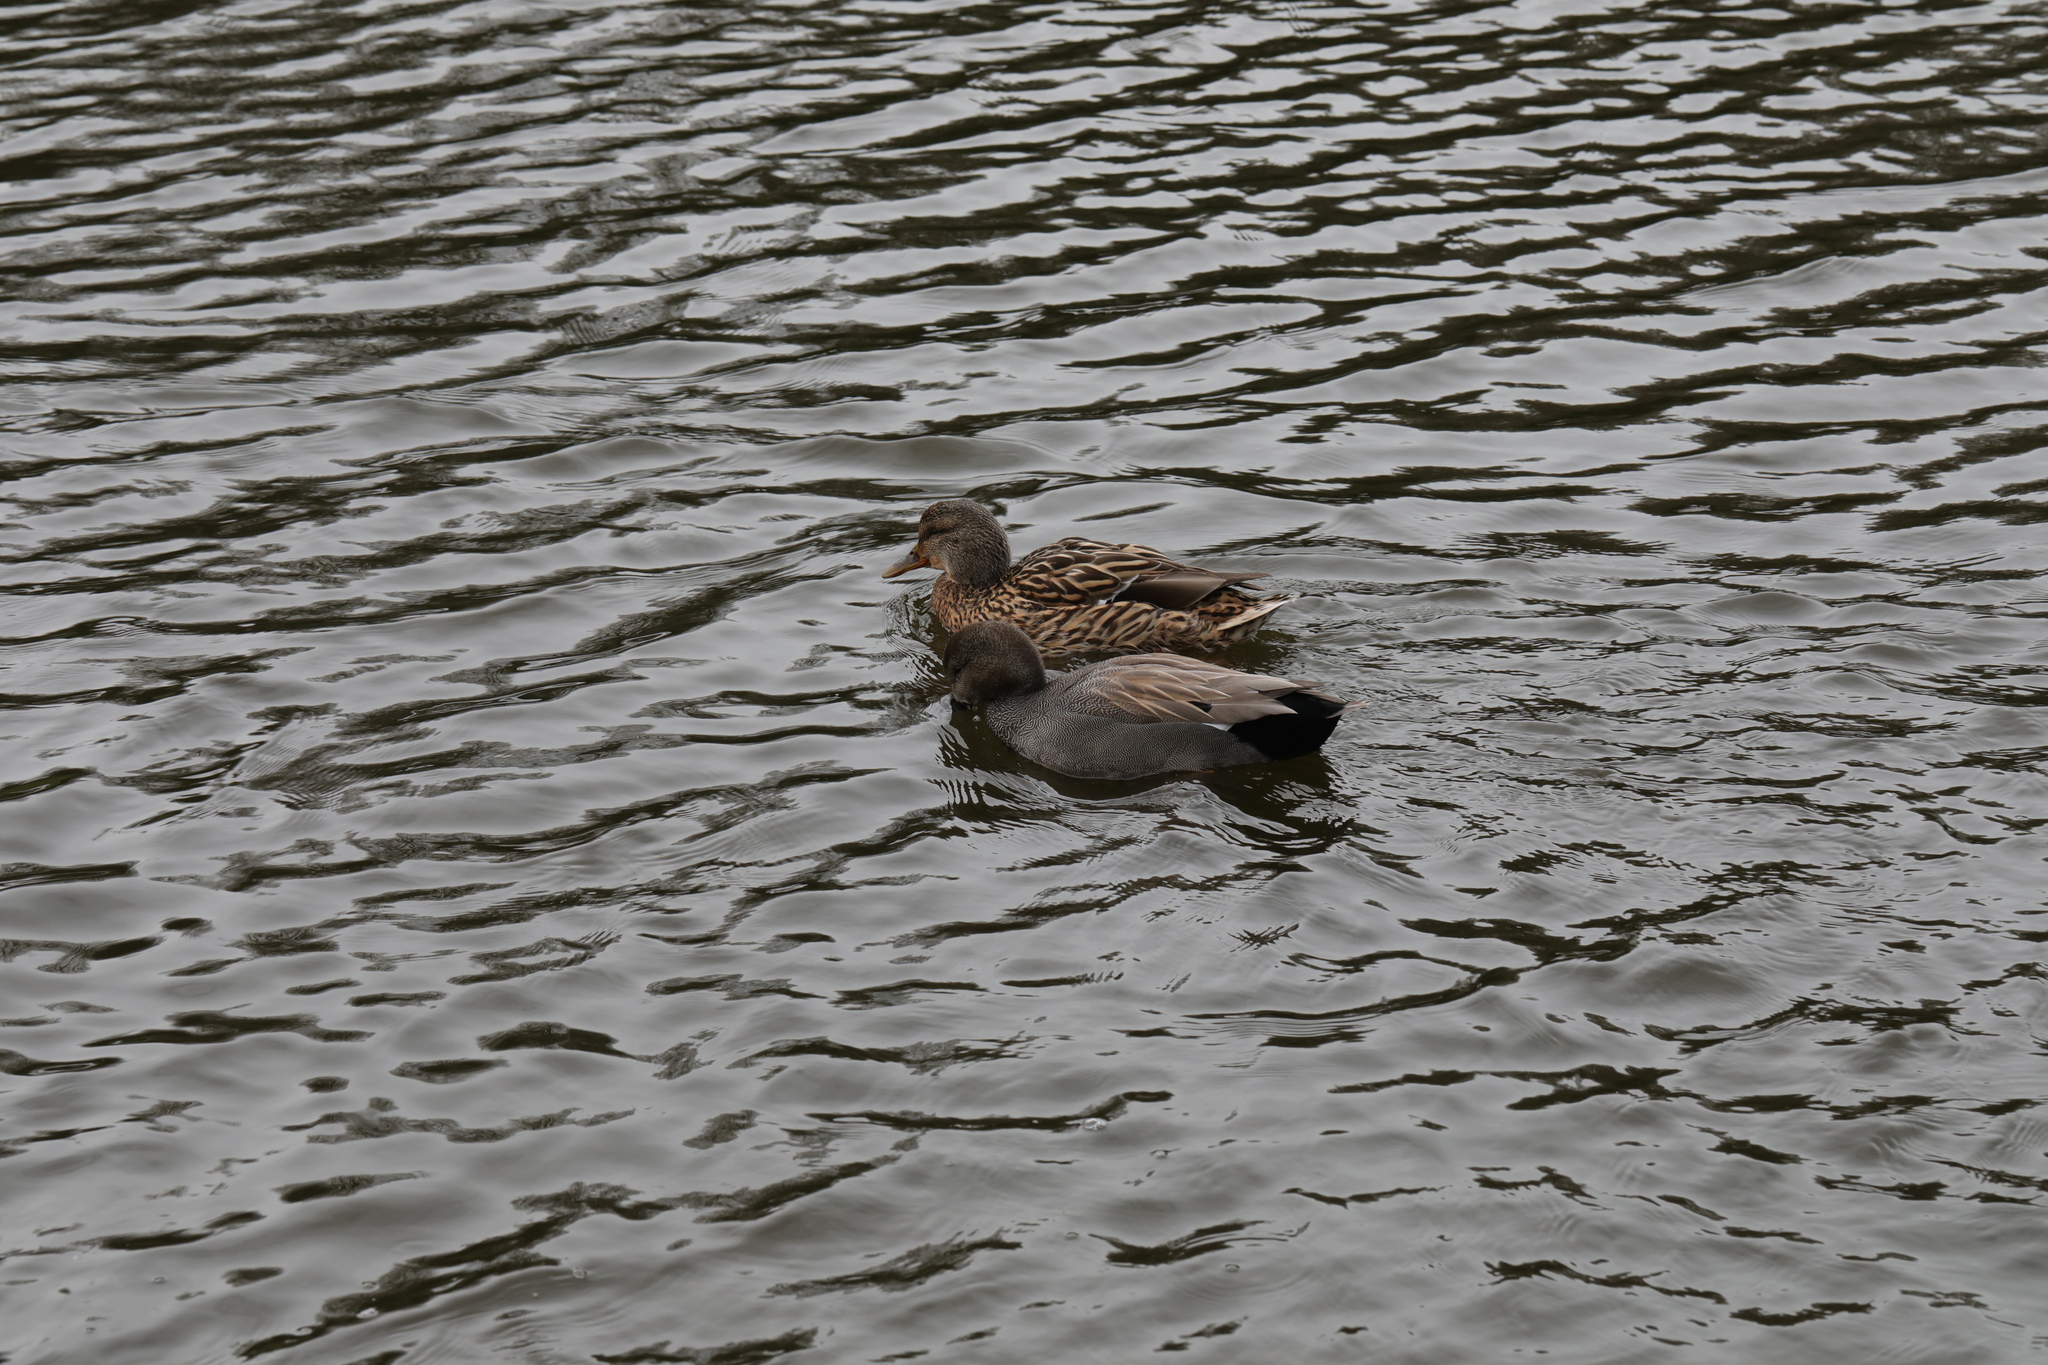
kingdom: Animalia
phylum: Chordata
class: Aves
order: Anseriformes
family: Anatidae
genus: Mareca
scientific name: Mareca strepera
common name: Gadwall
